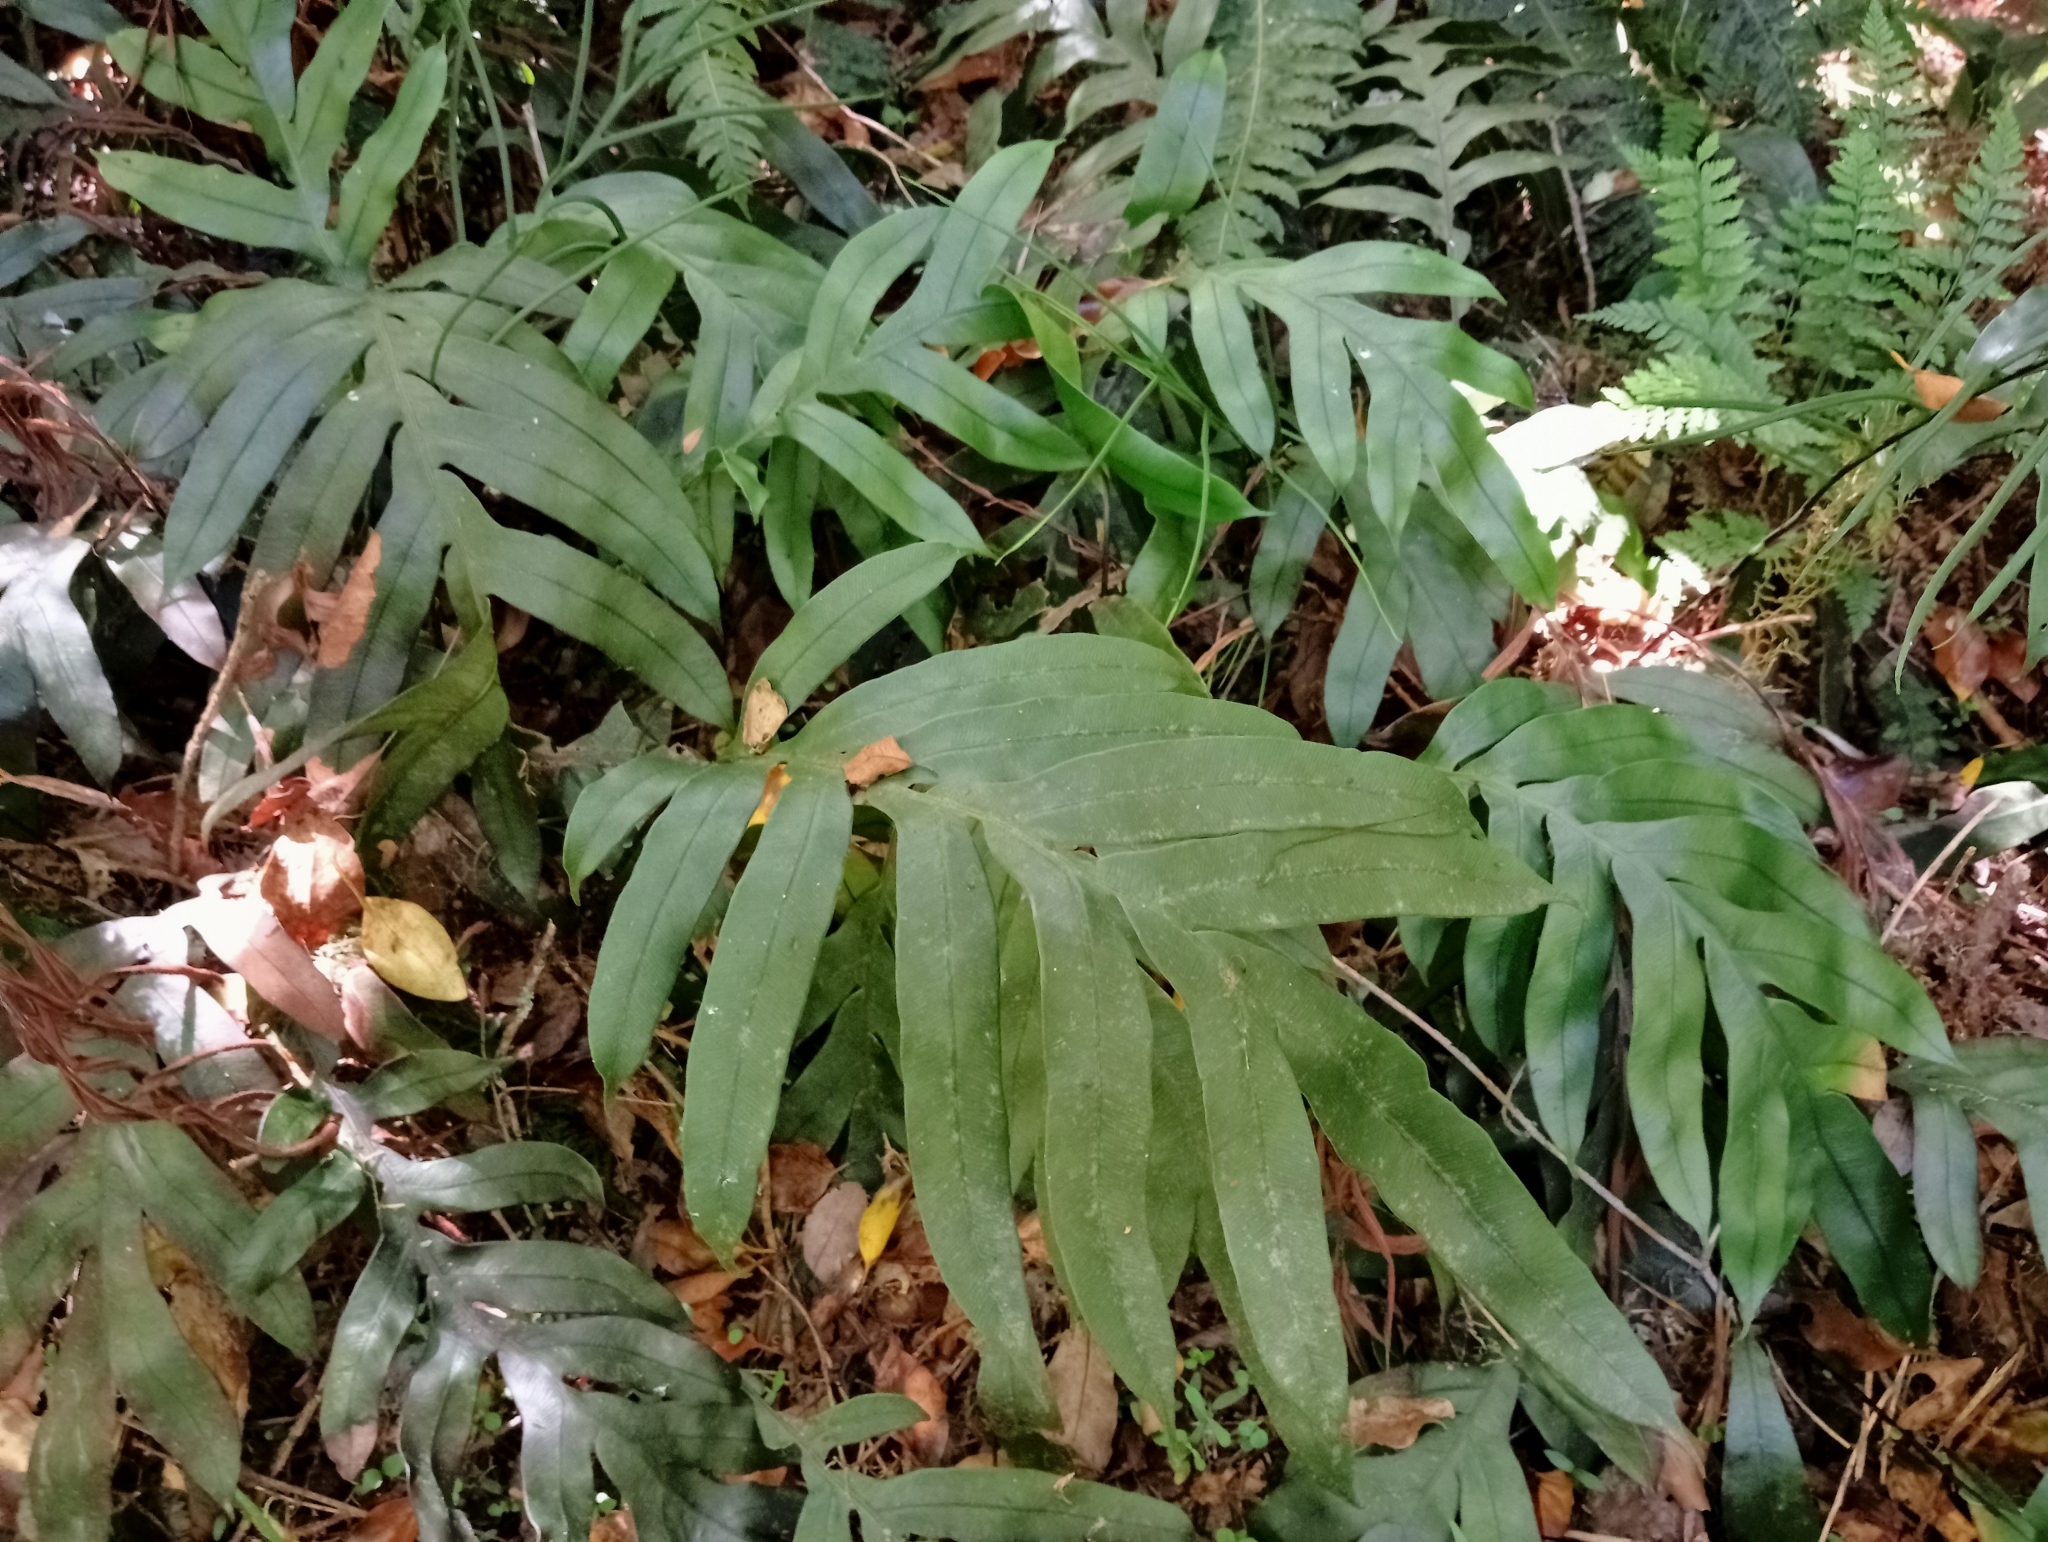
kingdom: Plantae
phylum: Tracheophyta
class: Polypodiopsida
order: Polypodiales
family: Blechnaceae
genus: Austroblechnum
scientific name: Austroblechnum colensoi
